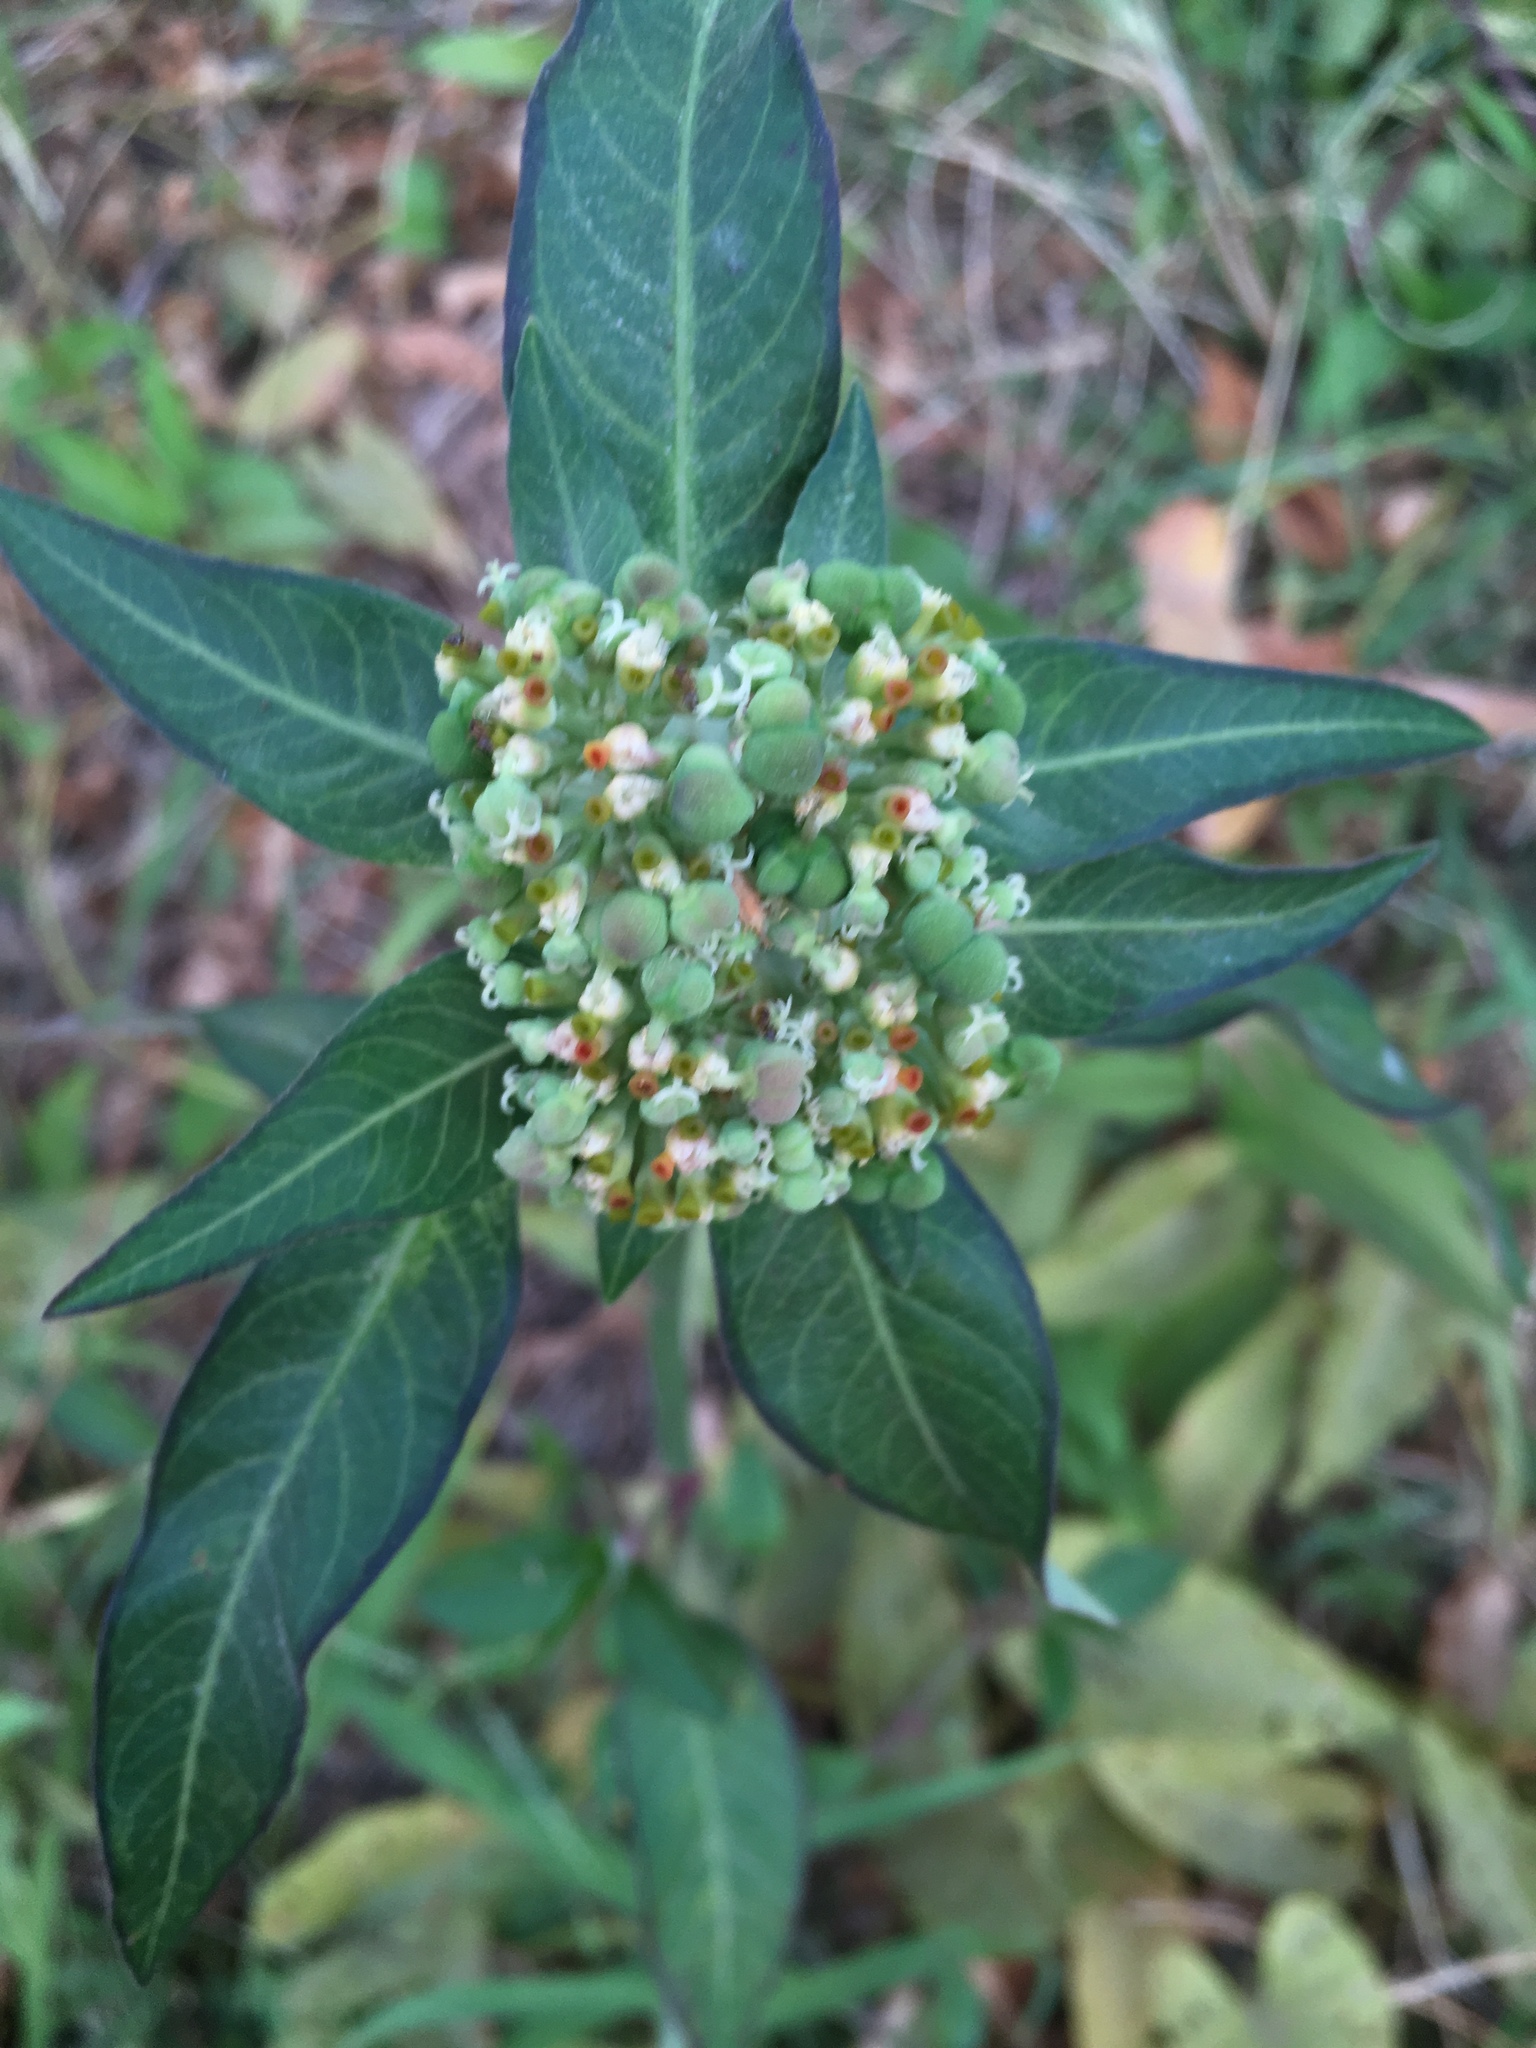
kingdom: Plantae
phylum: Tracheophyta
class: Magnoliopsida
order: Malpighiales
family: Euphorbiaceae
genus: Euphorbia
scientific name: Euphorbia heterophylla
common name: Mexican fireplant
